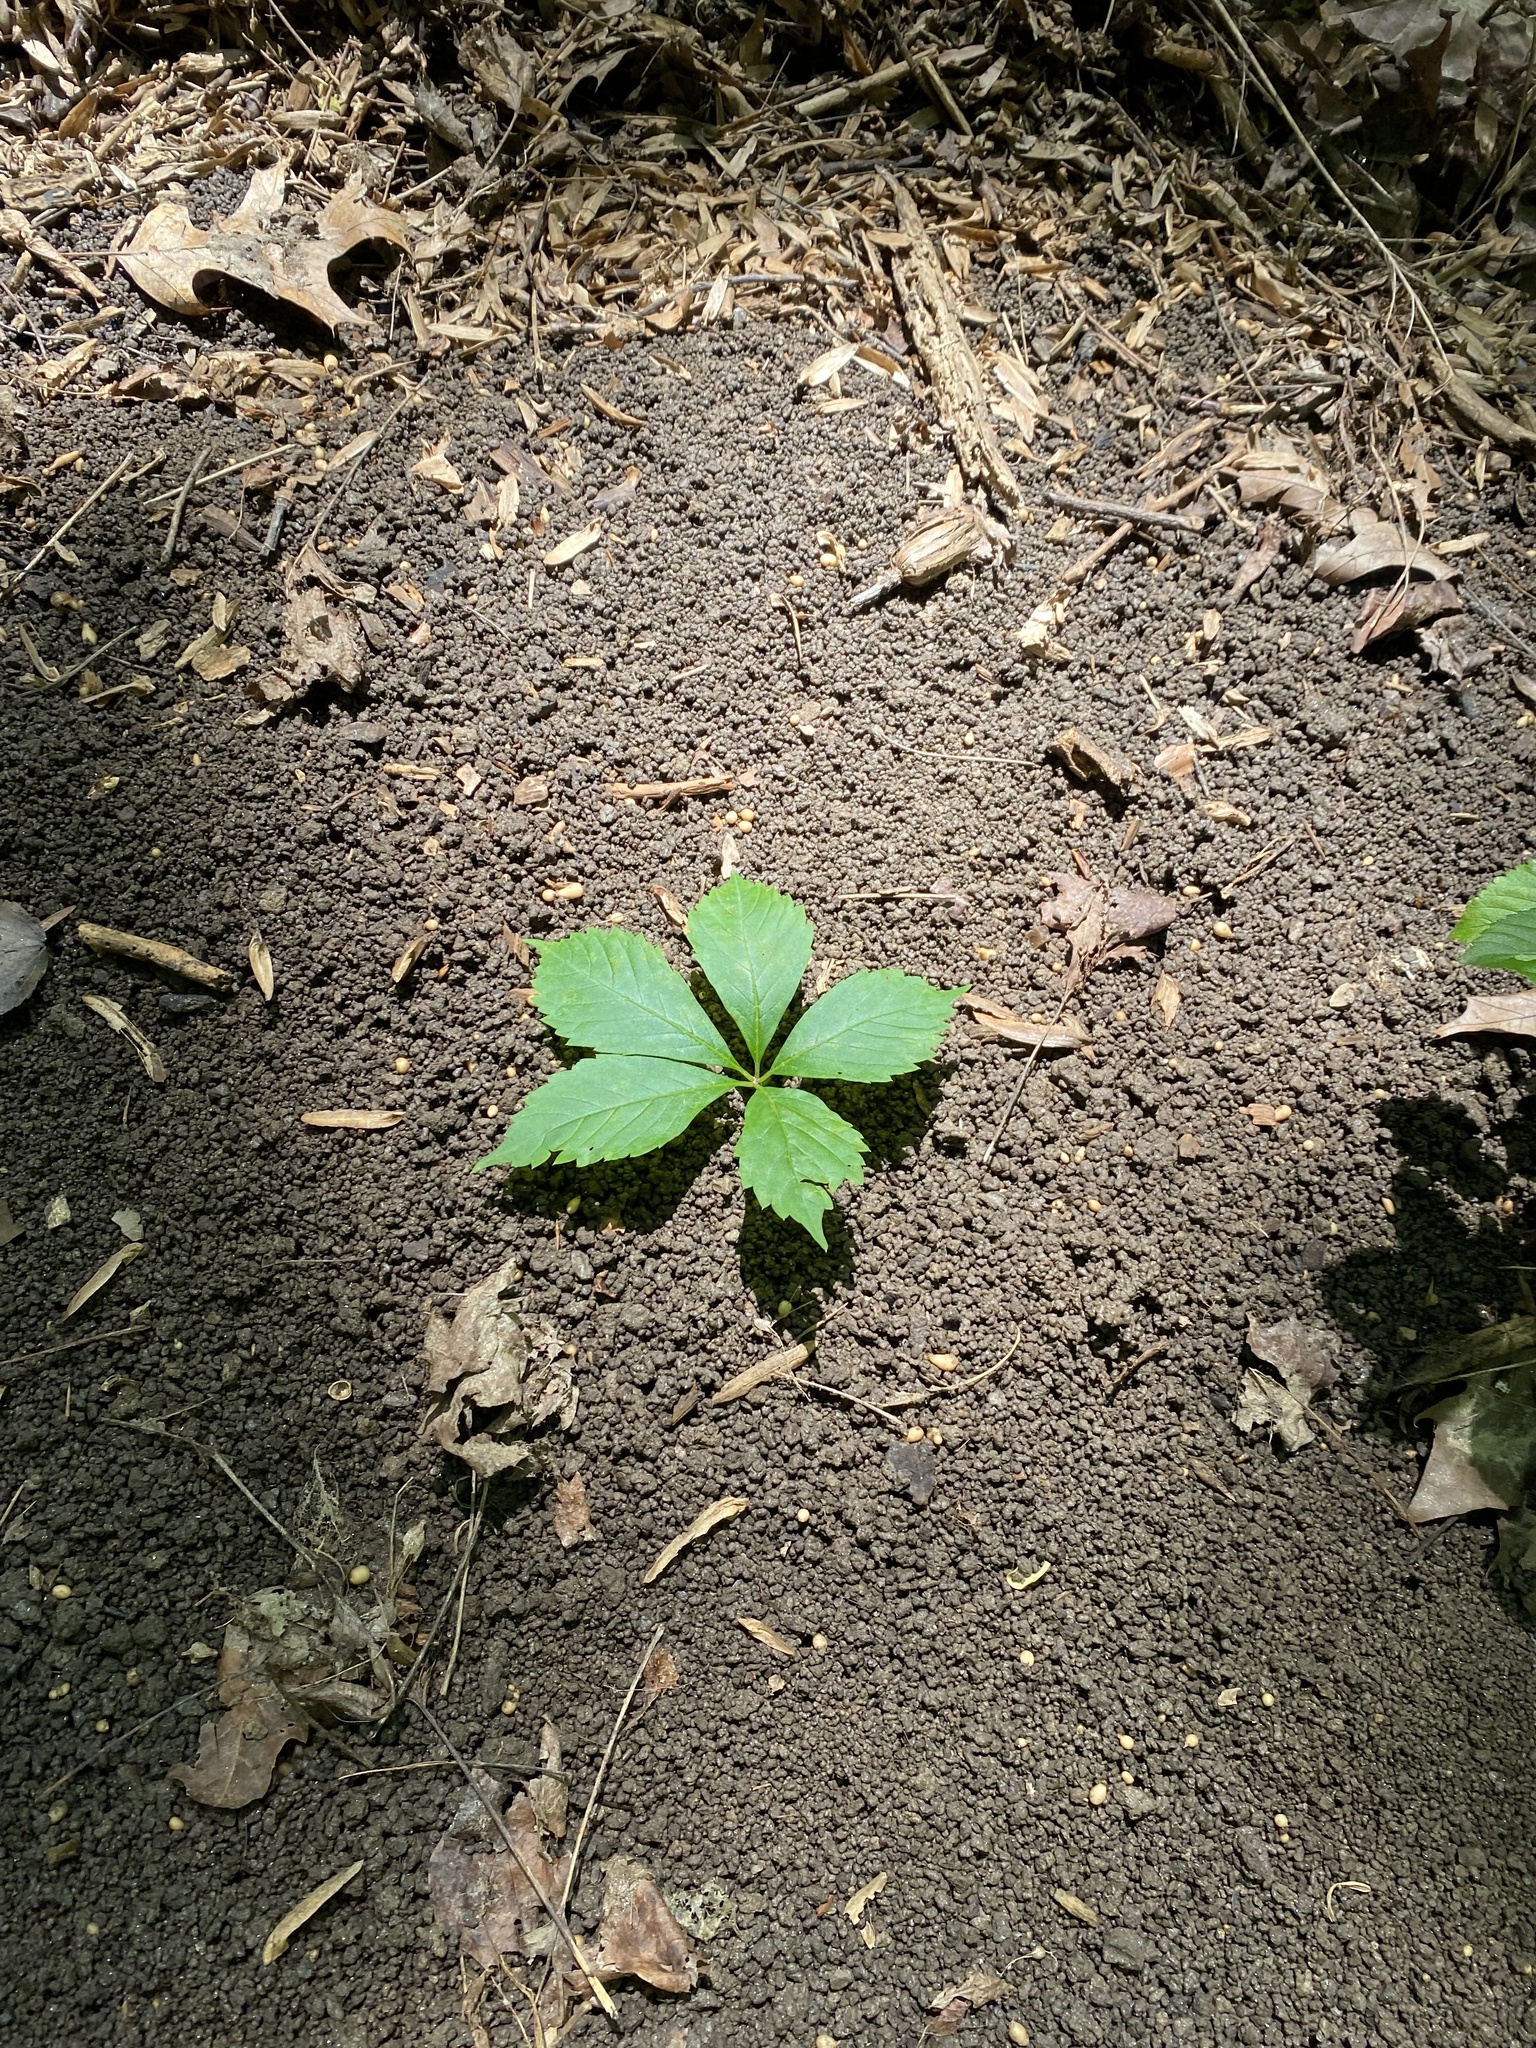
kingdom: Animalia
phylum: Annelida
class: Clitellata
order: Crassiclitellata
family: Megascolecidae
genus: Amynthas
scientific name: Amynthas agrestis
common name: Jumping snake worm
